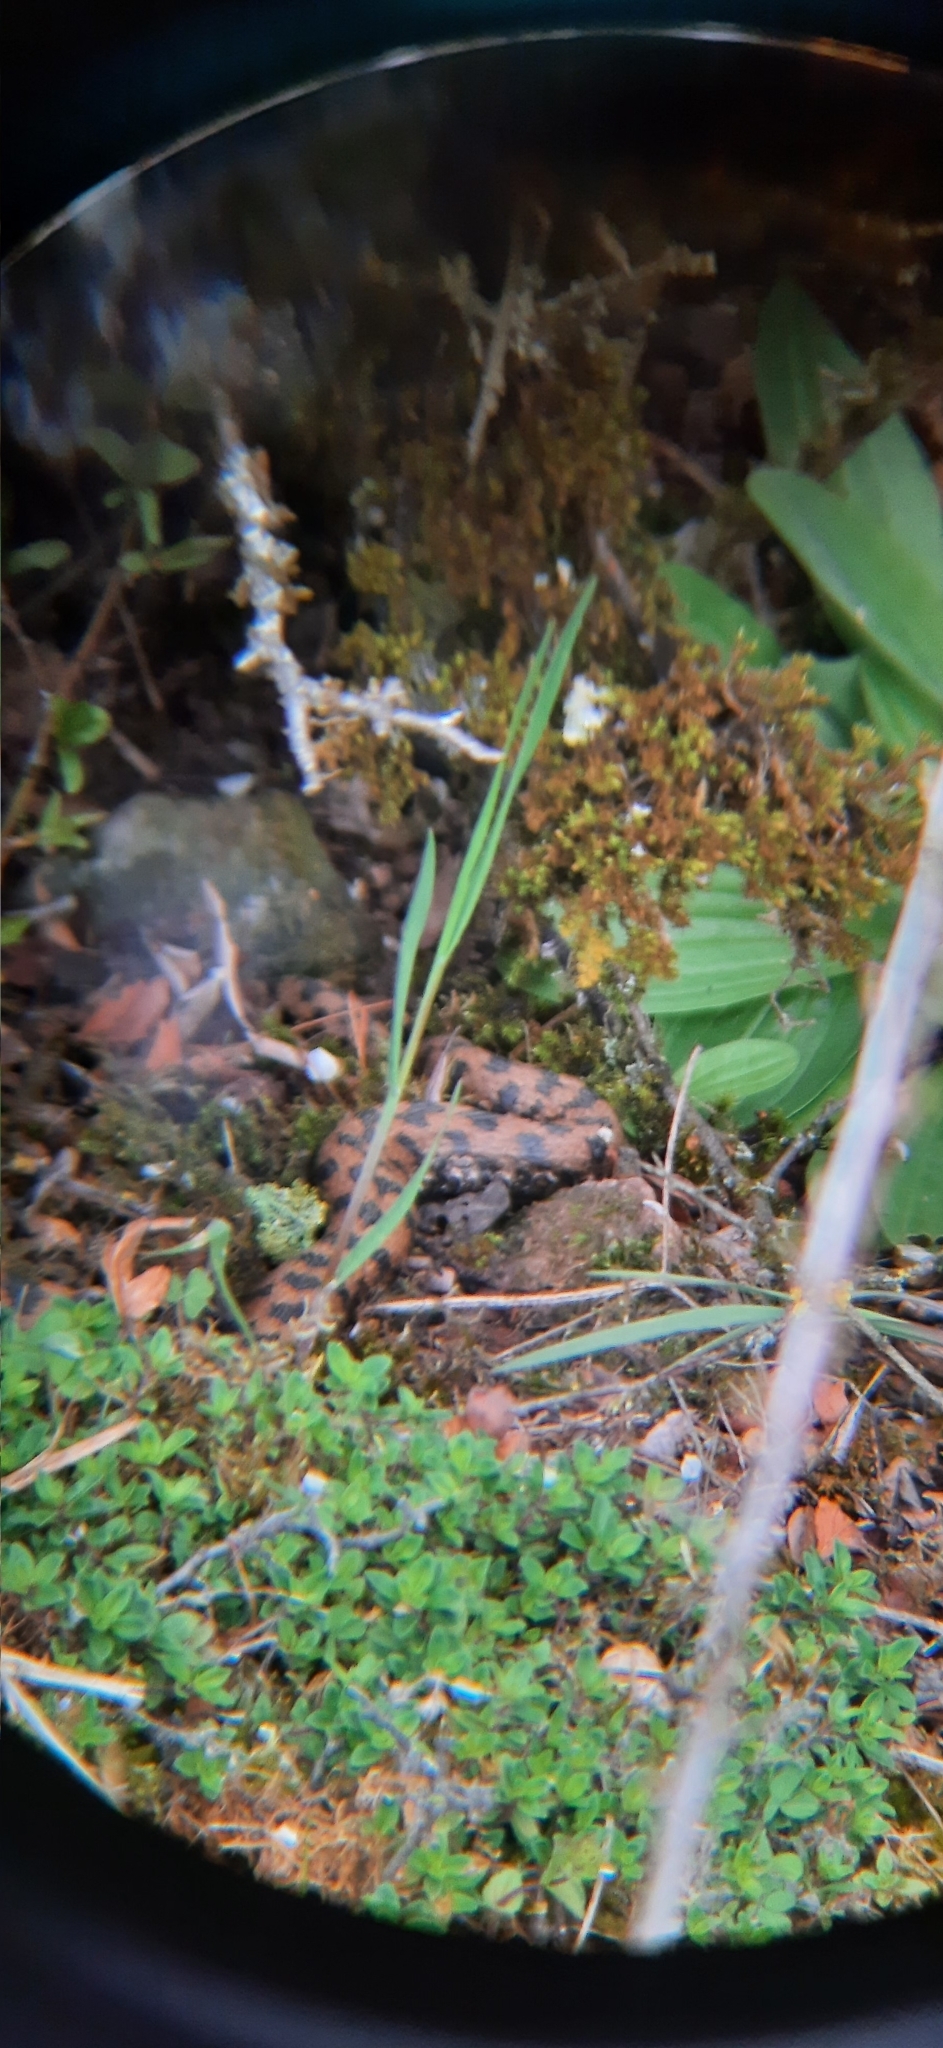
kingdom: Animalia
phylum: Chordata
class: Squamata
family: Viperidae
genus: Vipera
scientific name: Vipera aspis
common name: Asp viper
